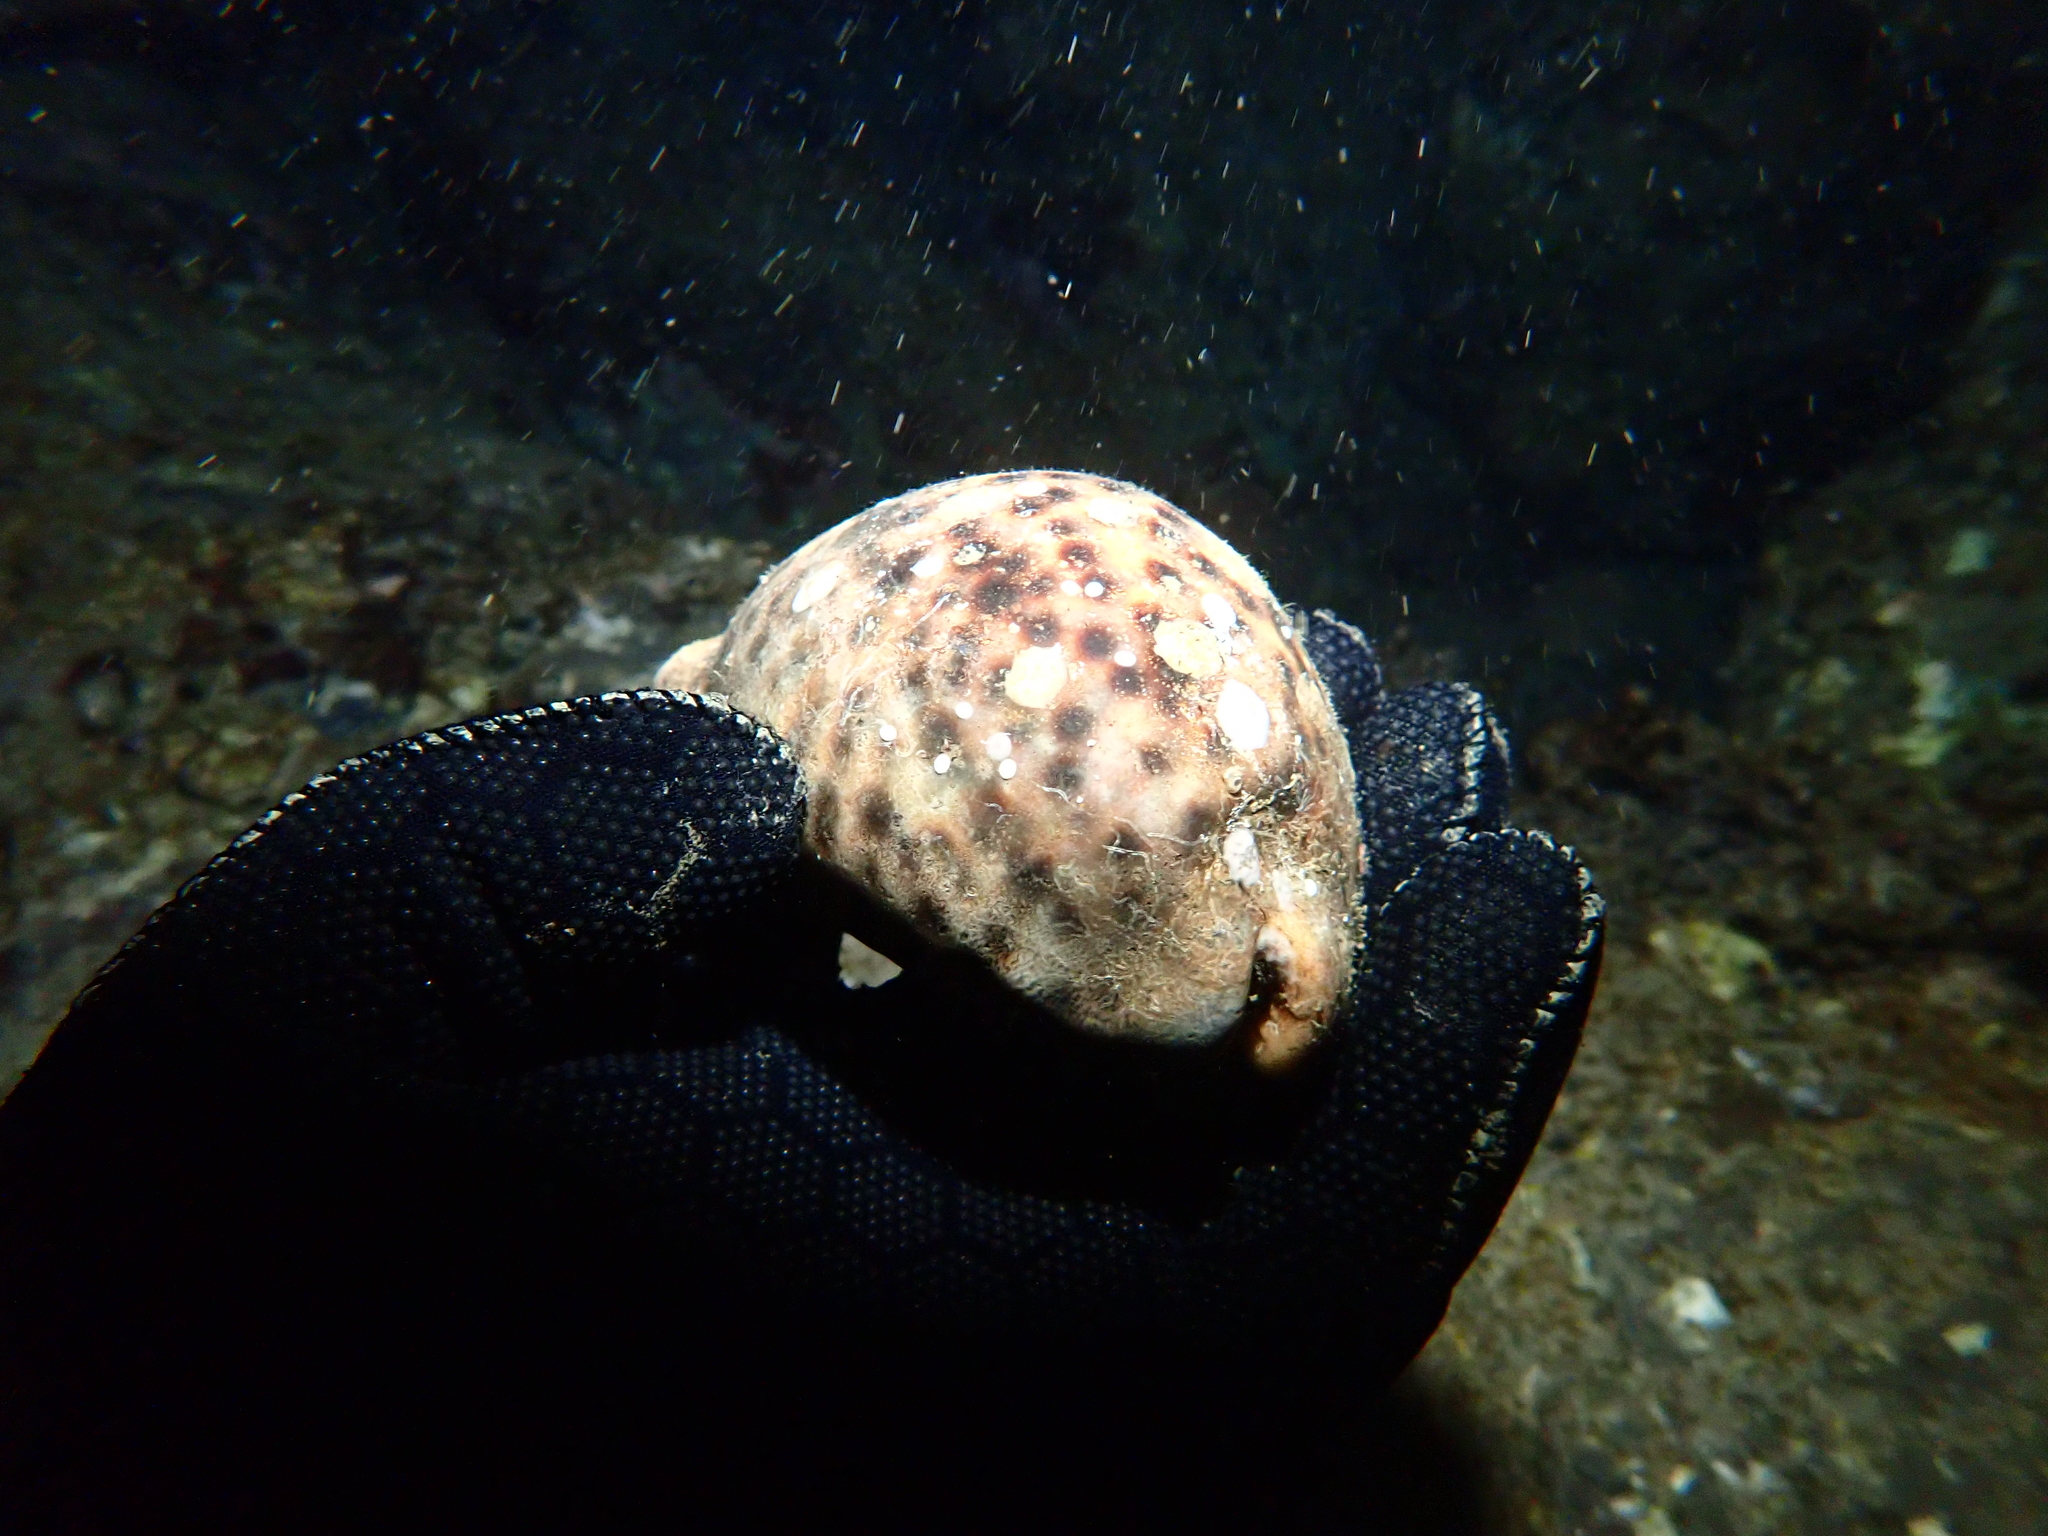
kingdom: Animalia
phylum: Mollusca
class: Gastropoda
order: Littorinimorpha
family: Cypraeidae
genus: Cypraea
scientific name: Cypraea tigris
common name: Tiger cowrie
